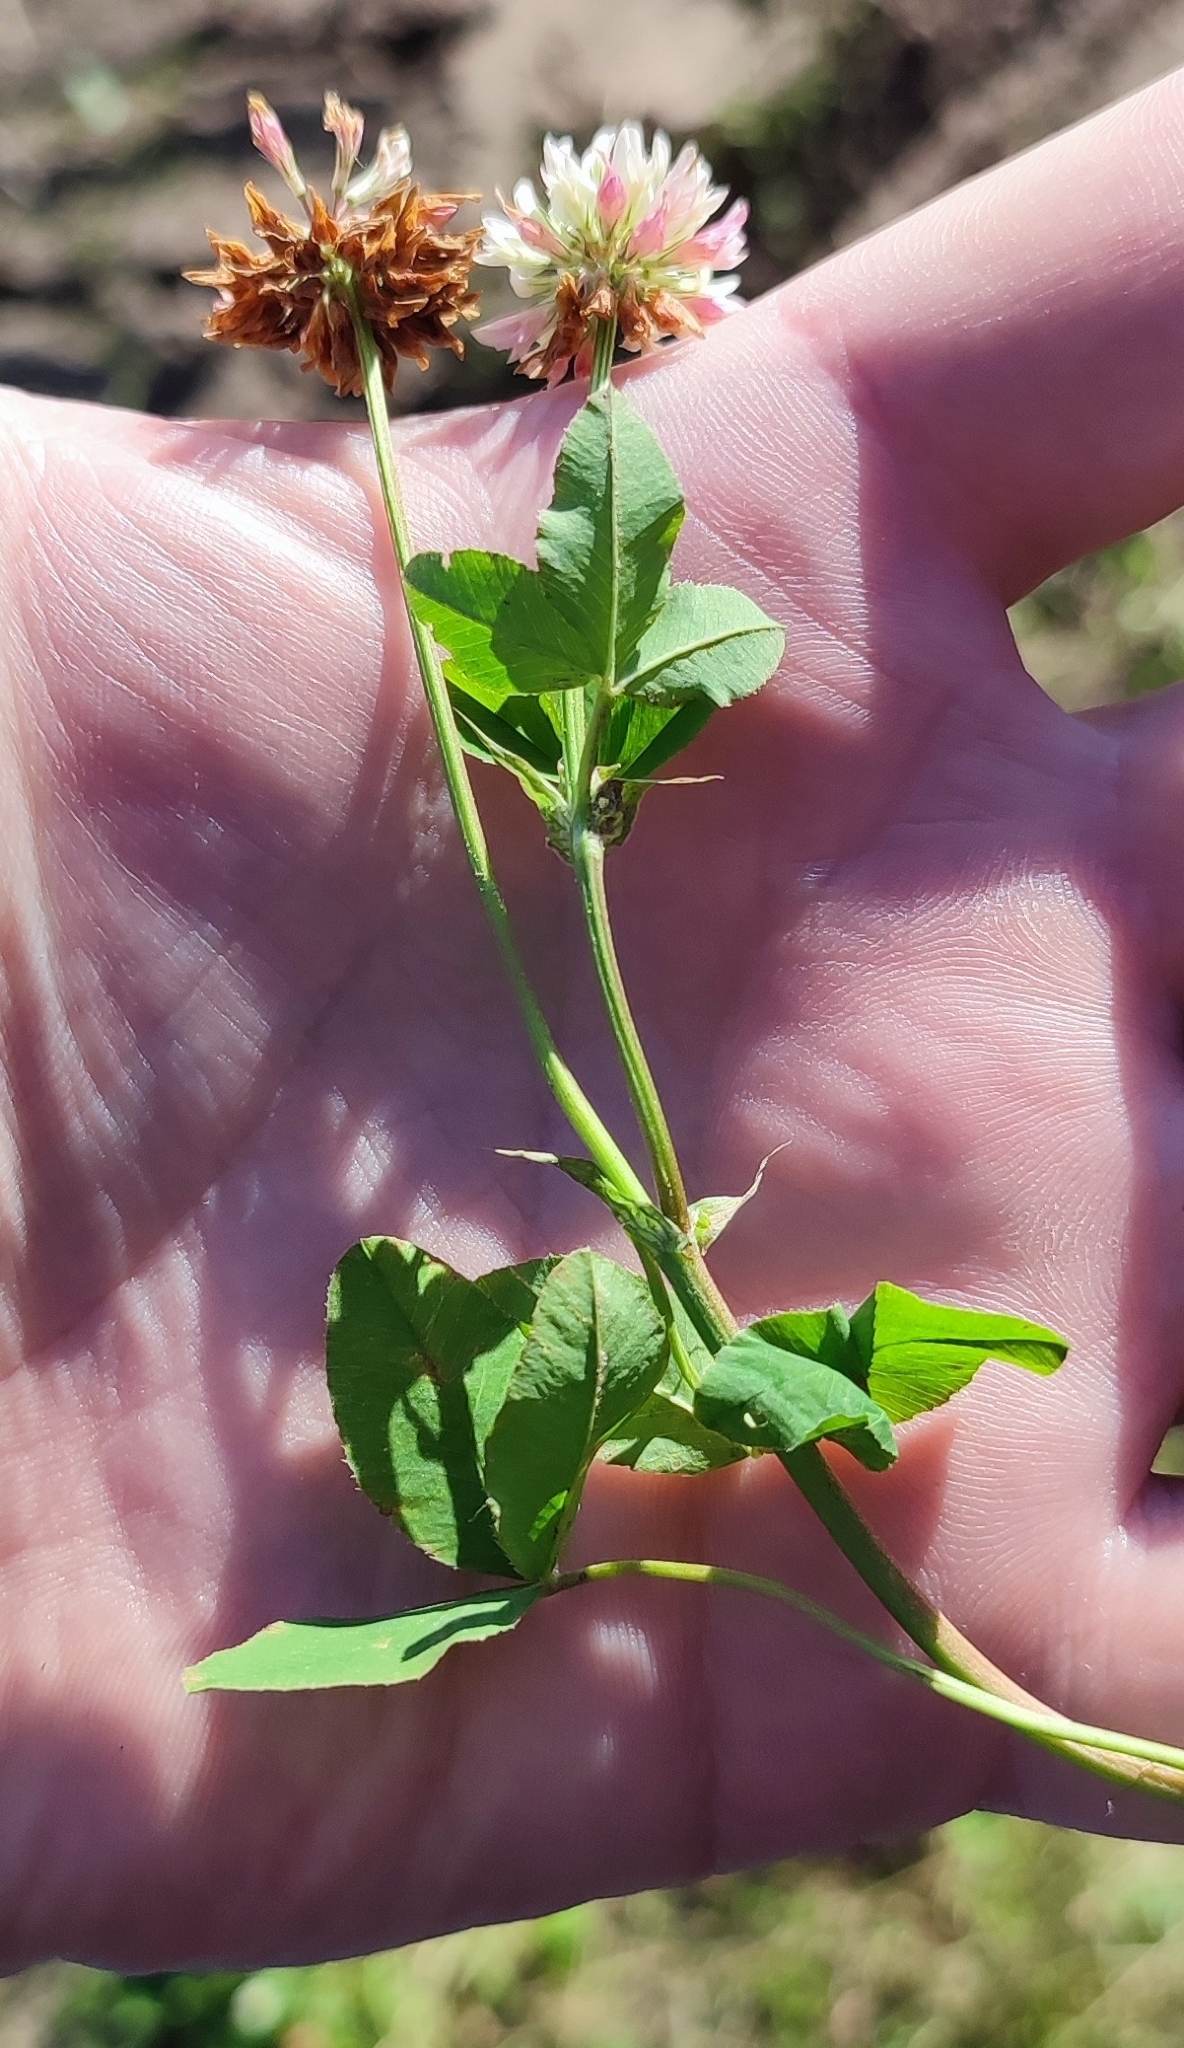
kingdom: Plantae
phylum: Tracheophyta
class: Magnoliopsida
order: Fabales
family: Fabaceae
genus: Trifolium
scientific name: Trifolium hybridum
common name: Alsike clover
